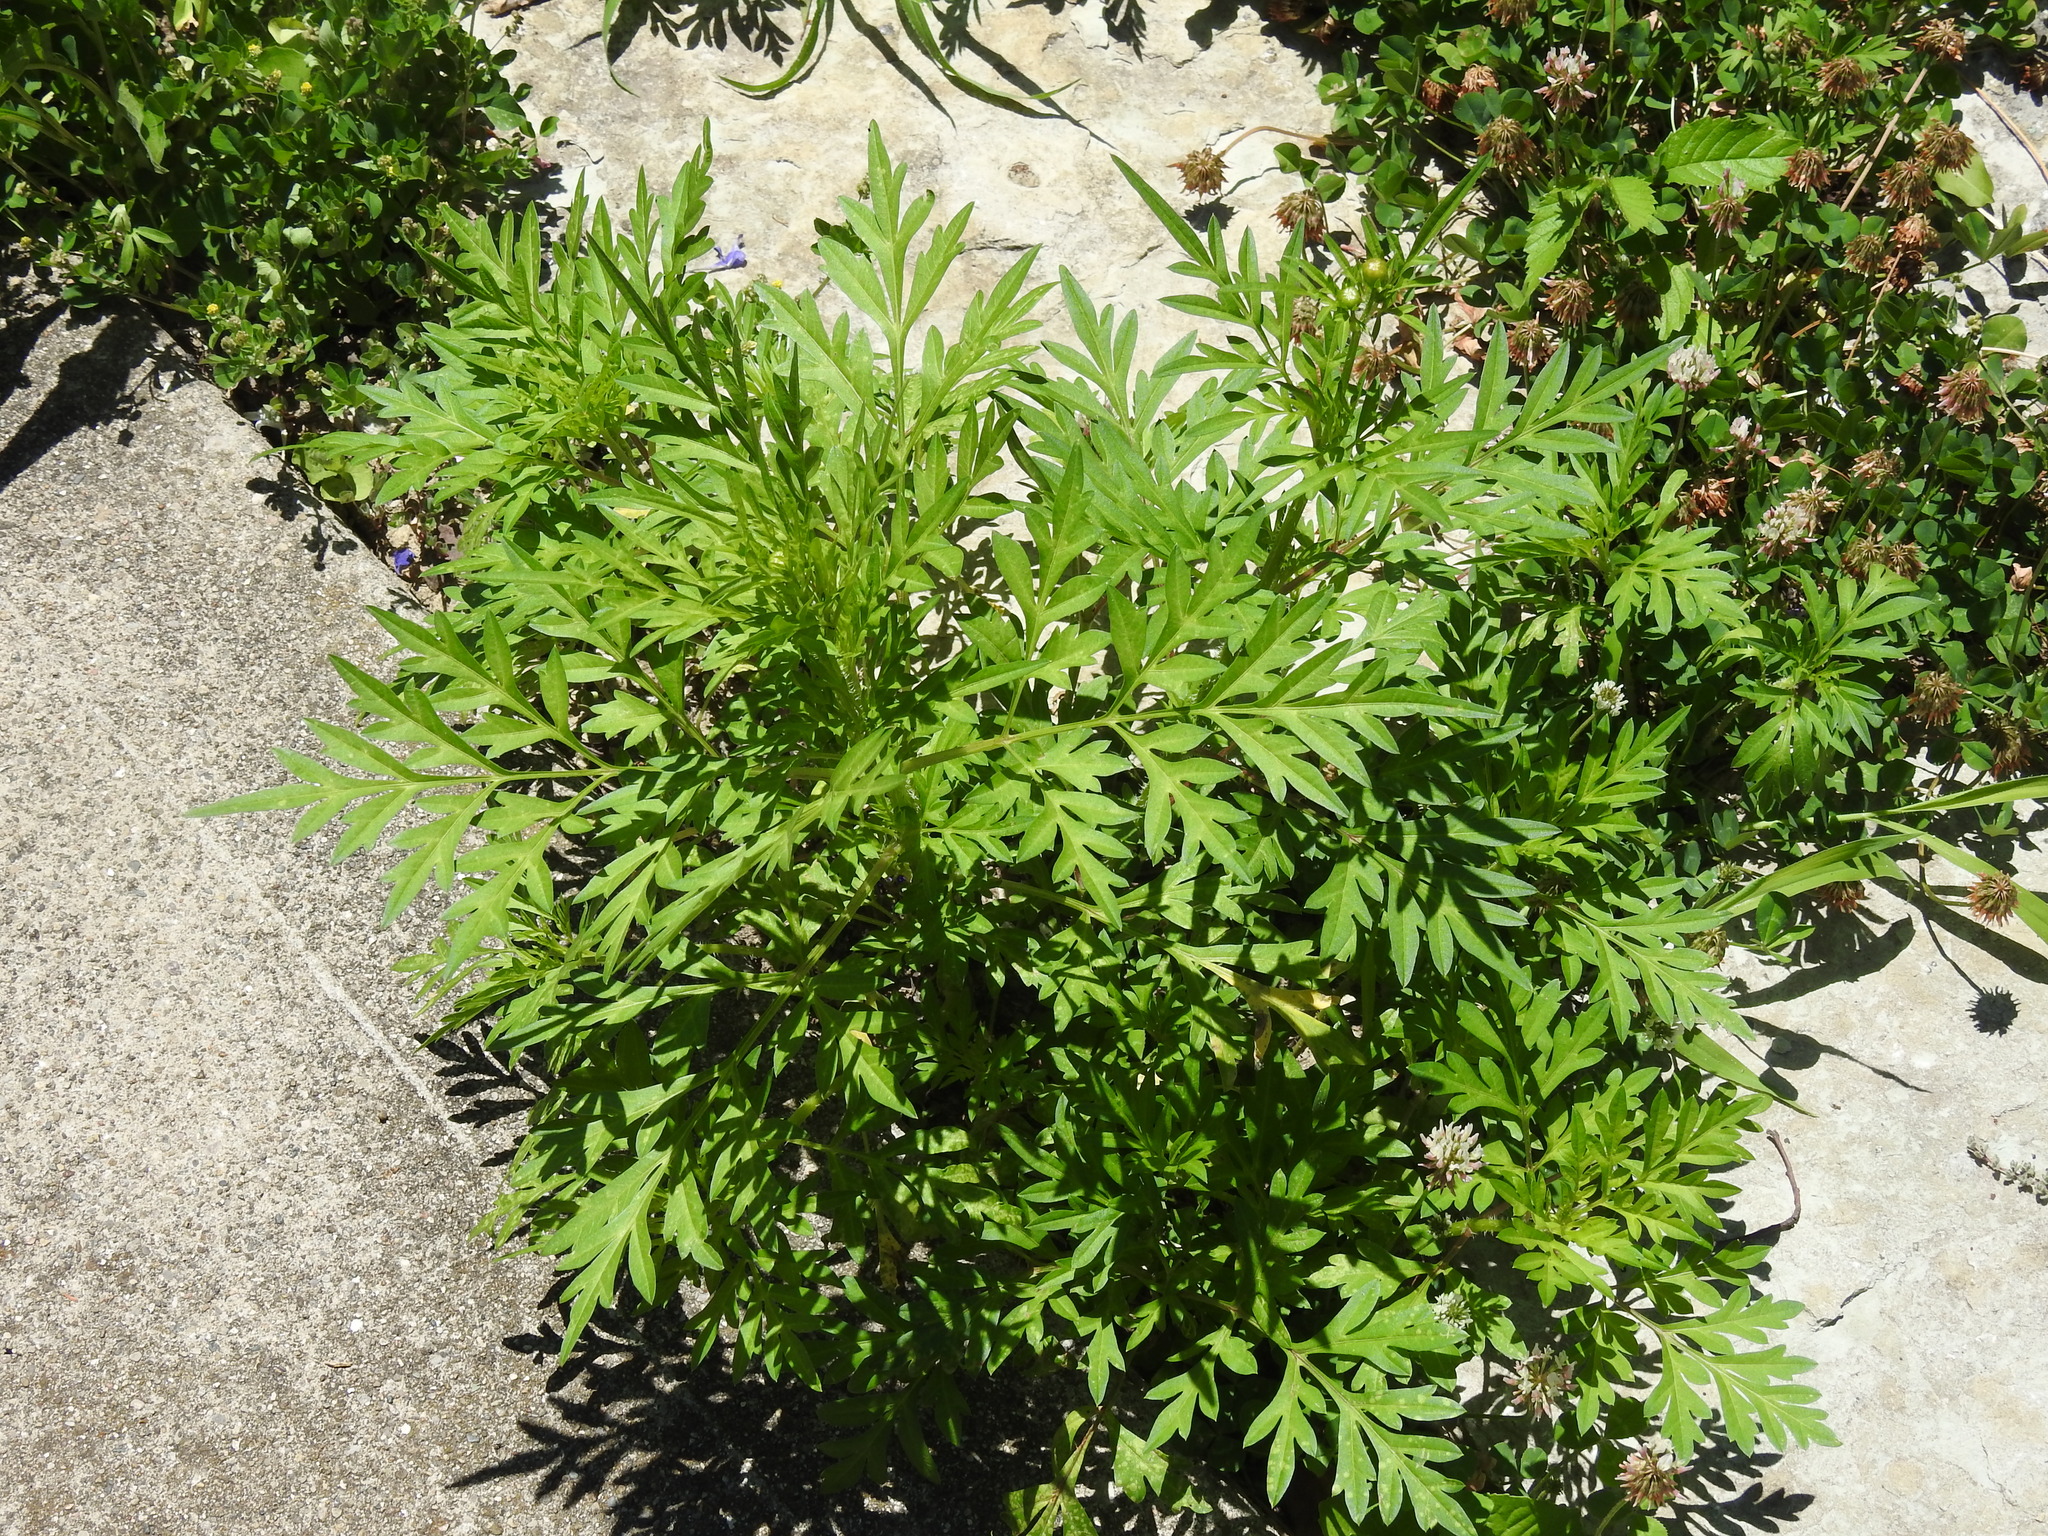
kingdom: Plantae
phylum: Tracheophyta
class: Magnoliopsida
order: Asterales
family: Asteraceae
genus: Ambrosia
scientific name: Ambrosia artemisiifolia
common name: Annual ragweed
